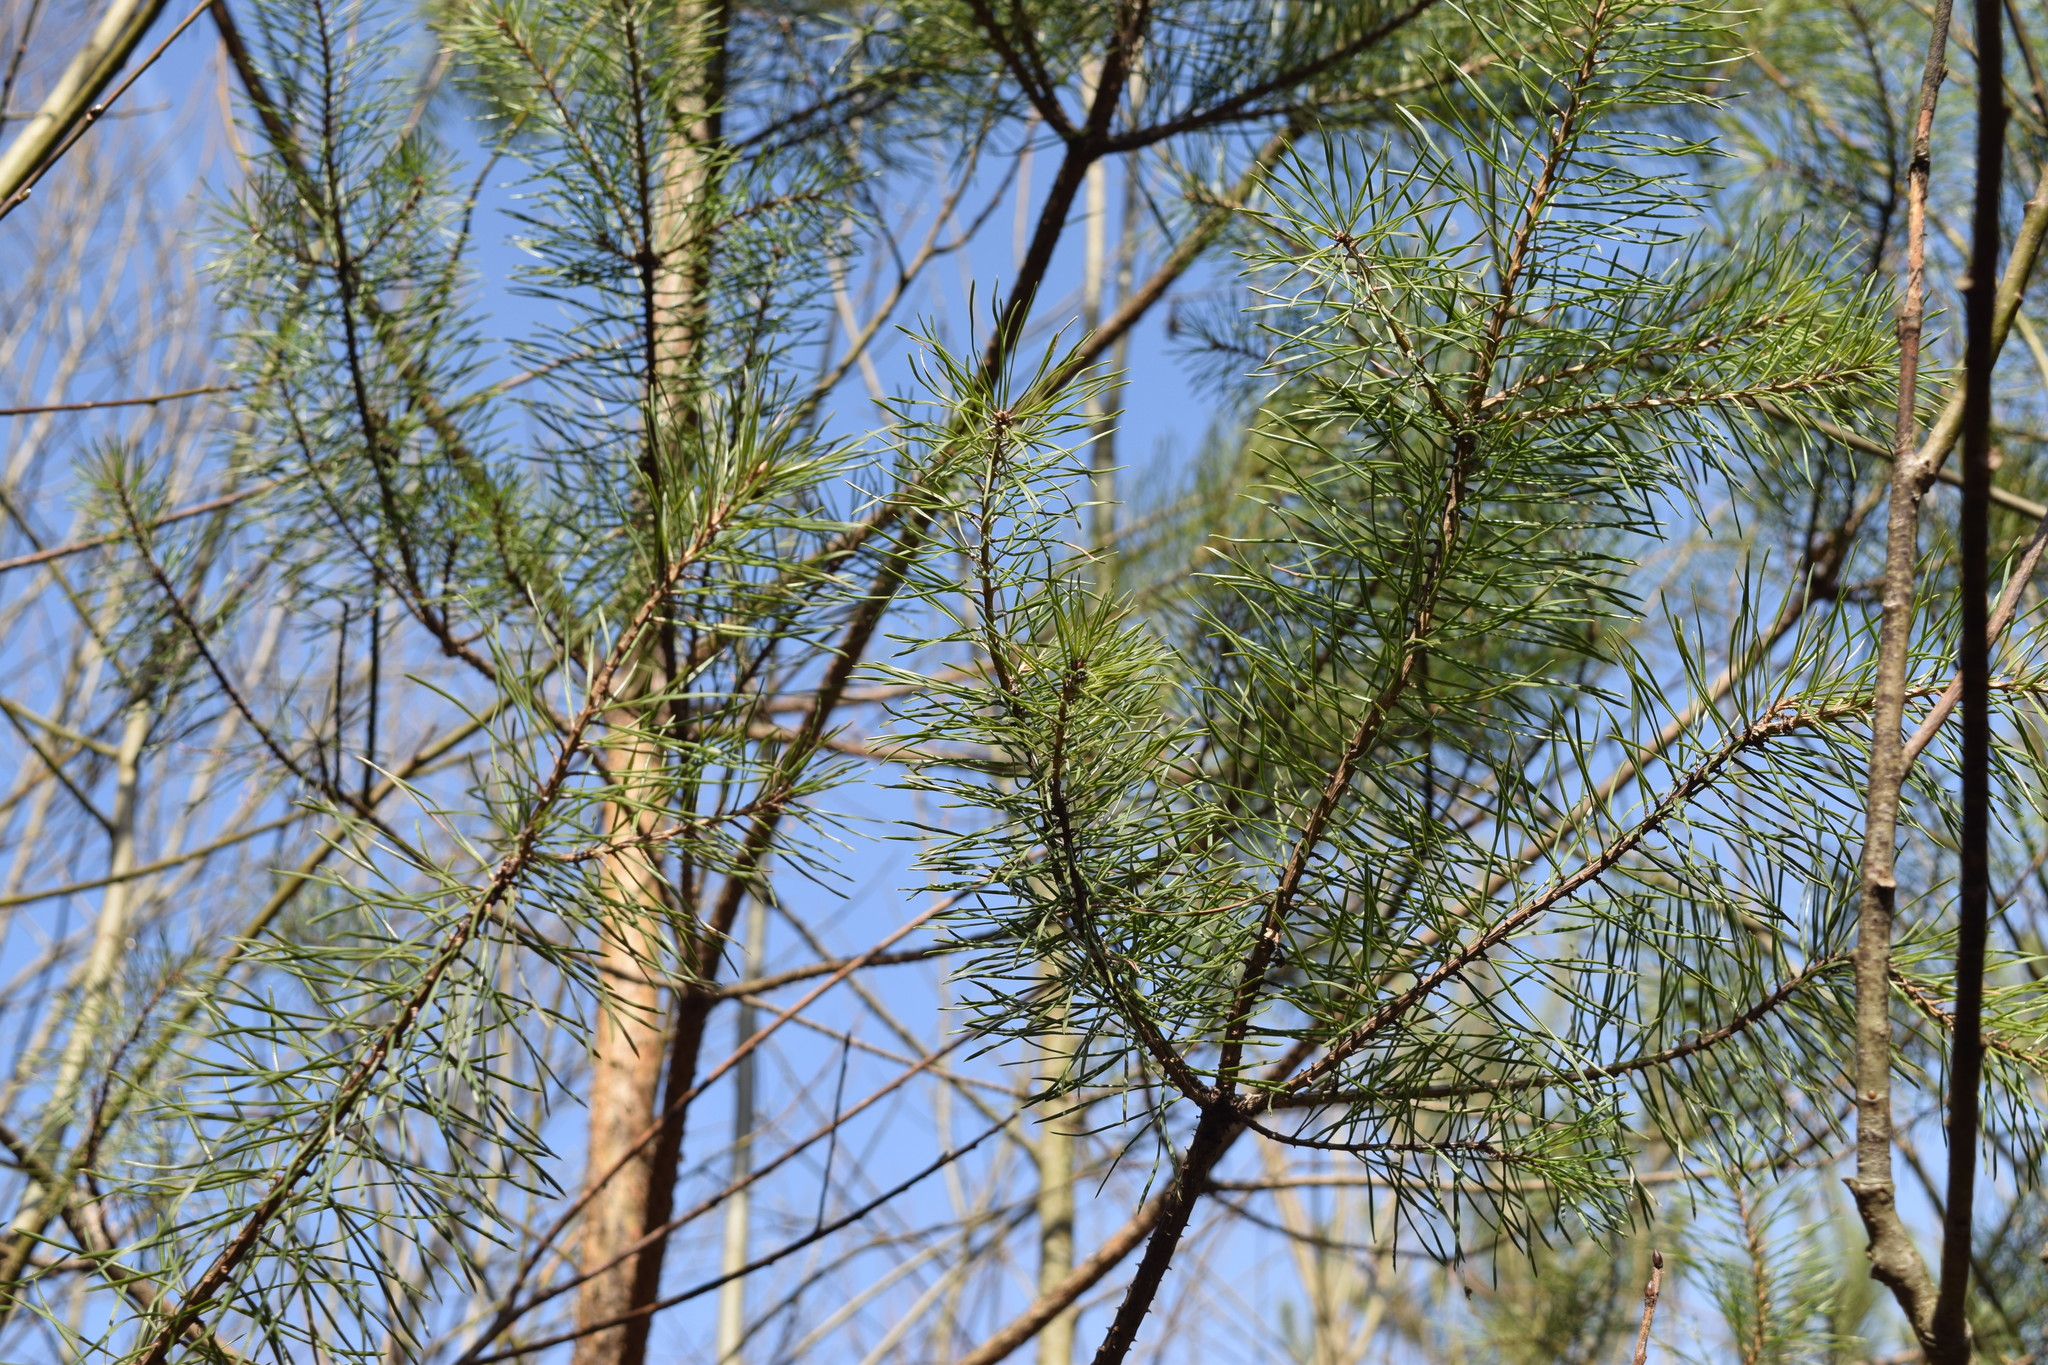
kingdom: Plantae
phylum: Tracheophyta
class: Pinopsida
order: Pinales
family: Pinaceae
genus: Pinus
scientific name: Pinus sylvestris
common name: Scots pine
